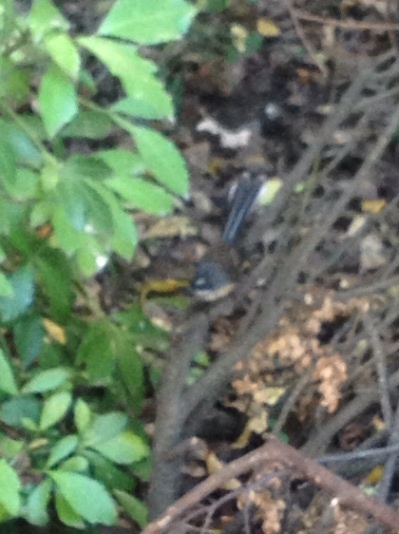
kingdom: Animalia
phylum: Chordata
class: Aves
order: Passeriformes
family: Rhipiduridae
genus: Rhipidura
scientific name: Rhipidura fuliginosa
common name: New zealand fantail
